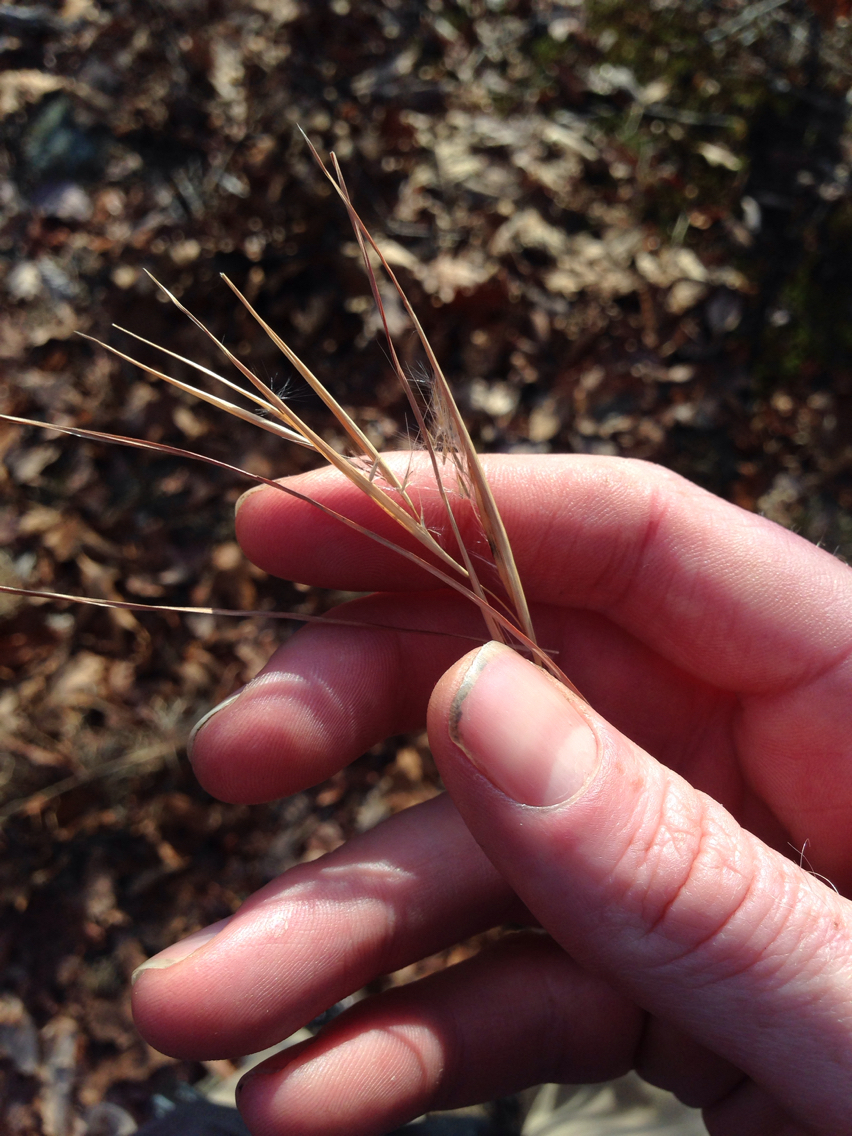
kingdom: Plantae
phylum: Tracheophyta
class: Liliopsida
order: Poales
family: Poaceae
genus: Andropogon
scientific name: Andropogon virginicus
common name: Broomsedge bluestem
